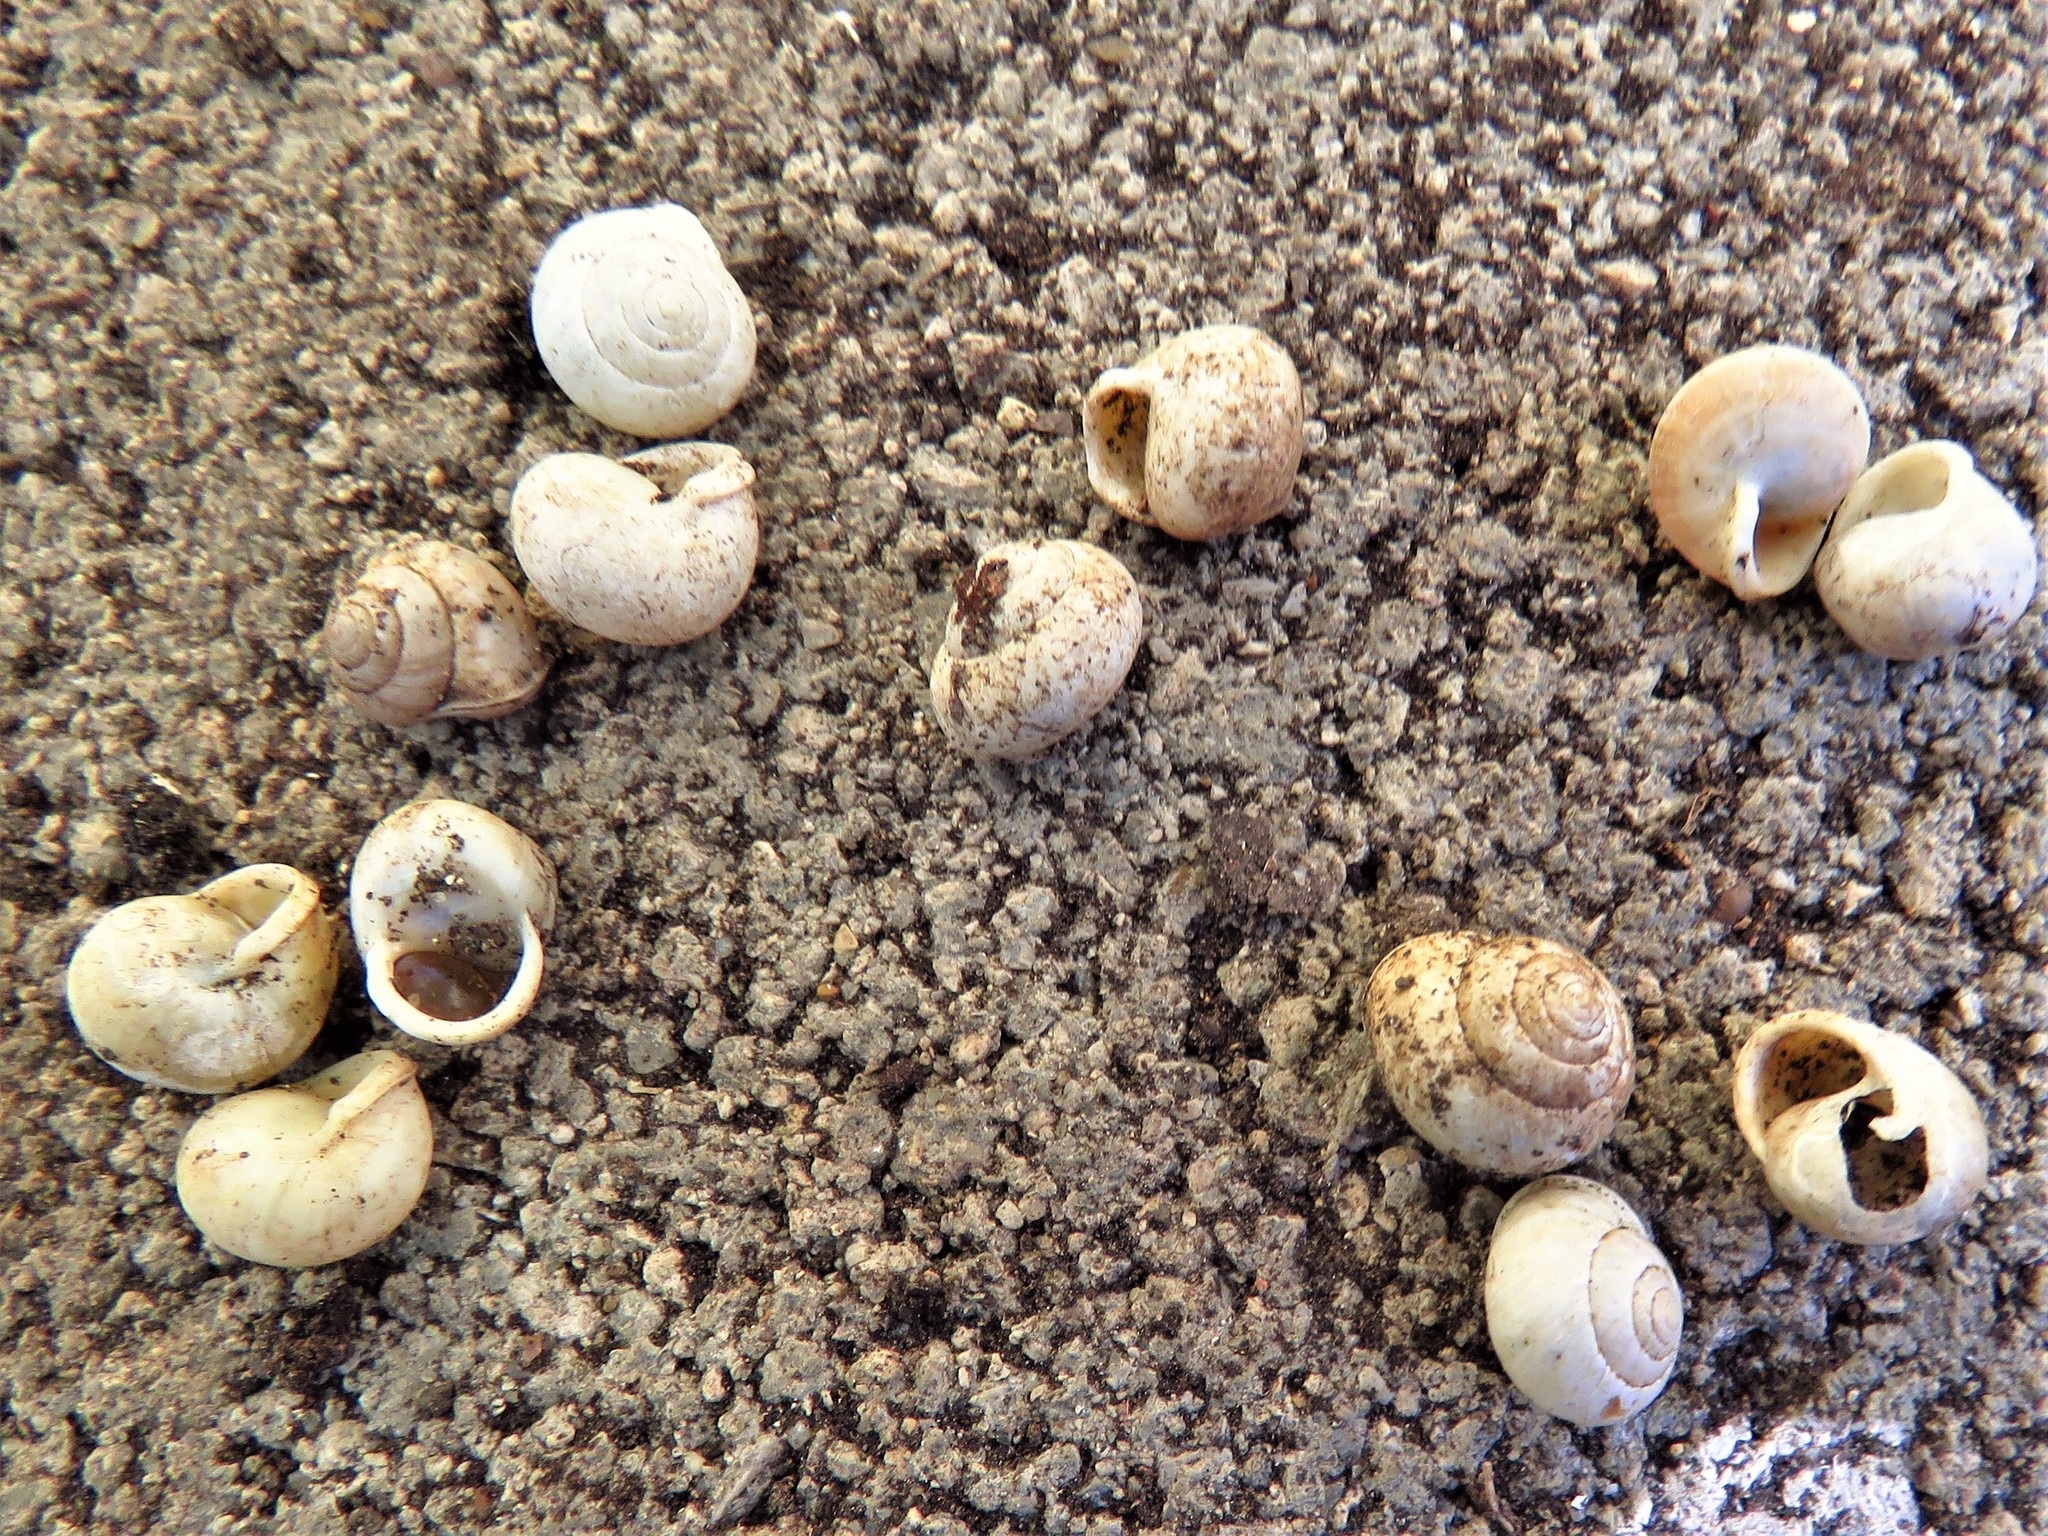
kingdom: Animalia
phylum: Mollusca
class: Gastropoda
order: Cycloneritida
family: Helicinidae
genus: Helicina
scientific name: Helicina orbiculata
